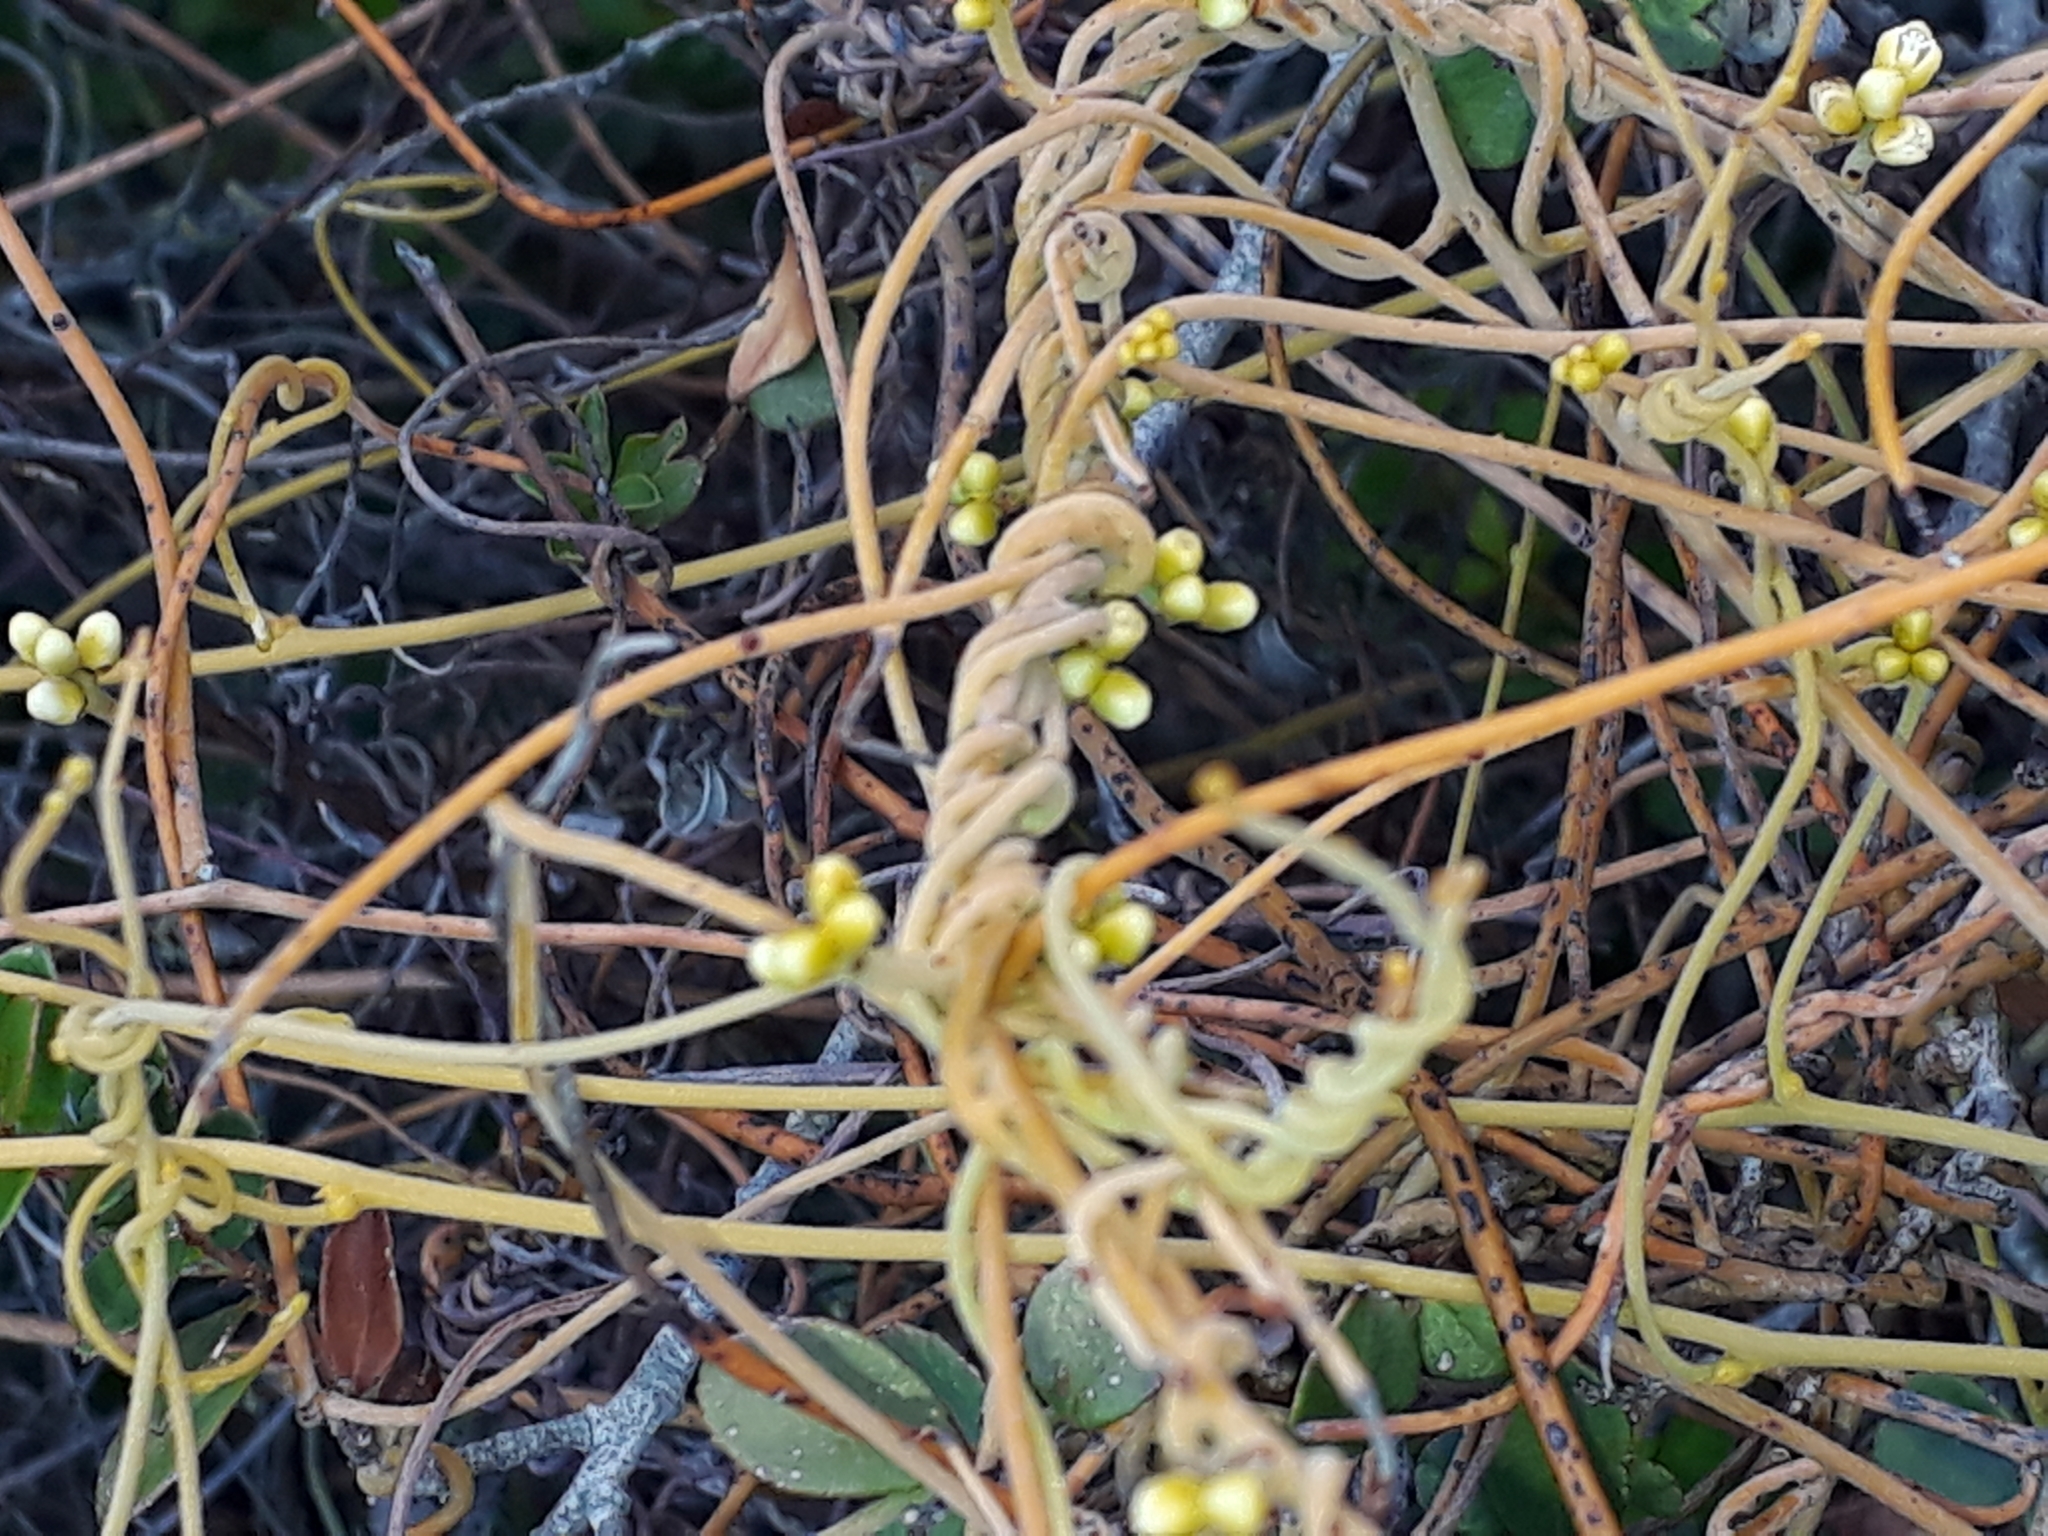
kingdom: Plantae
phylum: Tracheophyta
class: Magnoliopsida
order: Laurales
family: Lauraceae
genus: Cassytha
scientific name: Cassytha ciliolata
